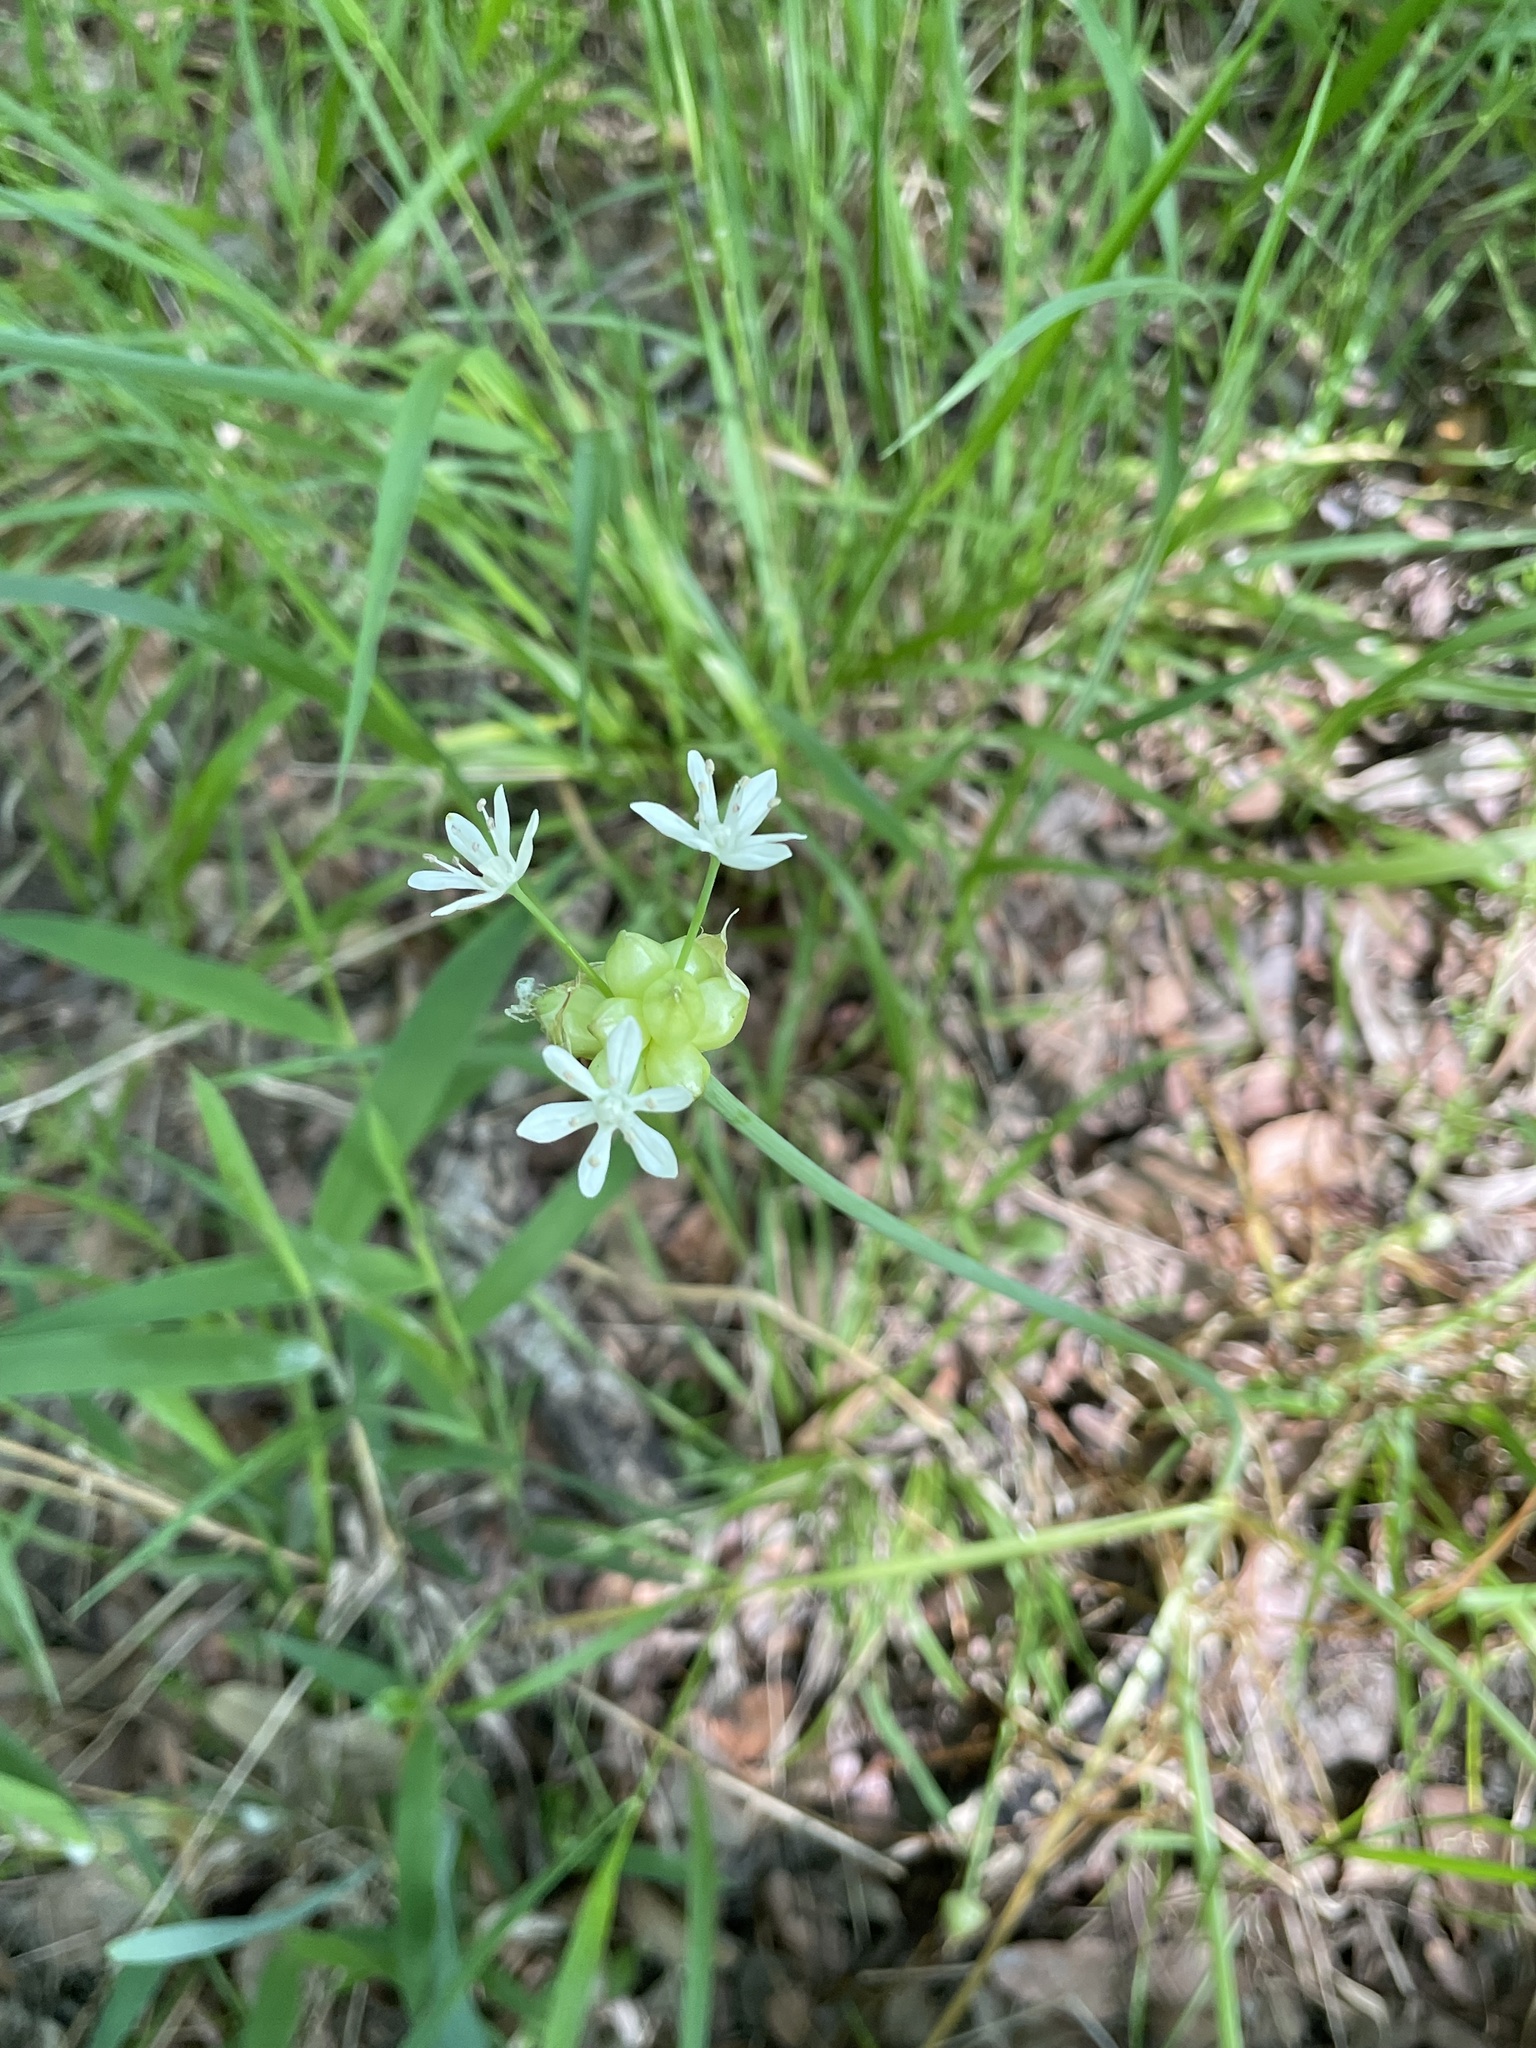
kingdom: Plantae
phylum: Tracheophyta
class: Liliopsida
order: Asparagales
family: Amaryllidaceae
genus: Allium
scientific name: Allium canadense
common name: Meadow garlic
